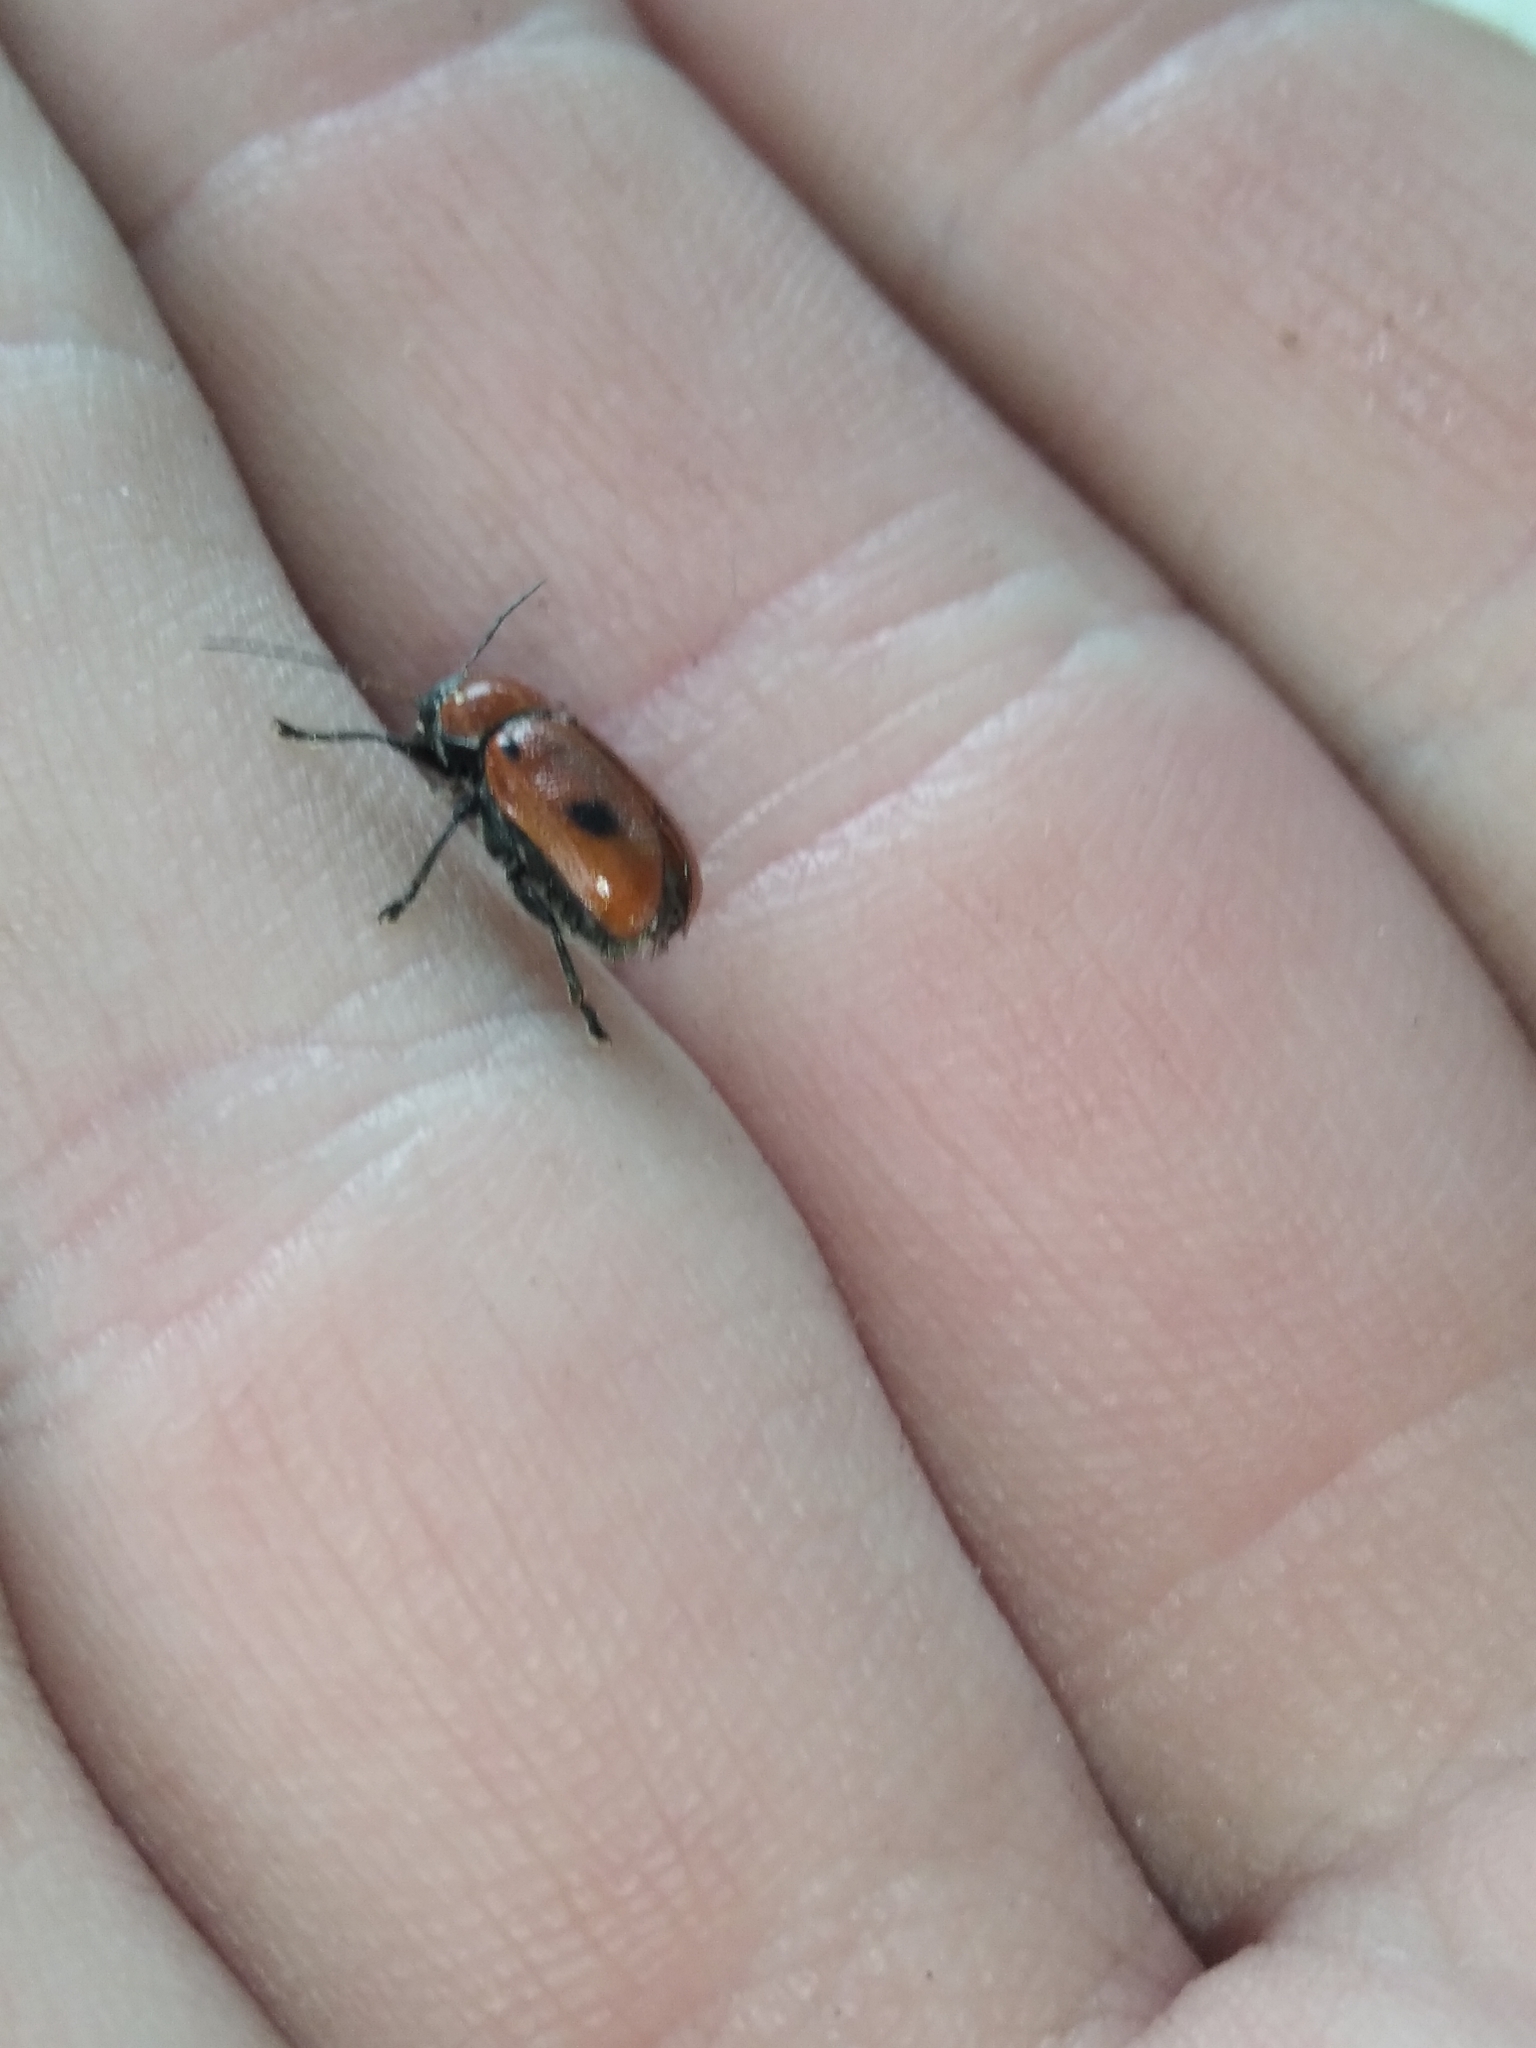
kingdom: Animalia
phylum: Arthropoda
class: Insecta
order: Coleoptera
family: Chrysomelidae
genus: Cryptocephalus
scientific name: Cryptocephalus coryli
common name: Hazel pot beetle
